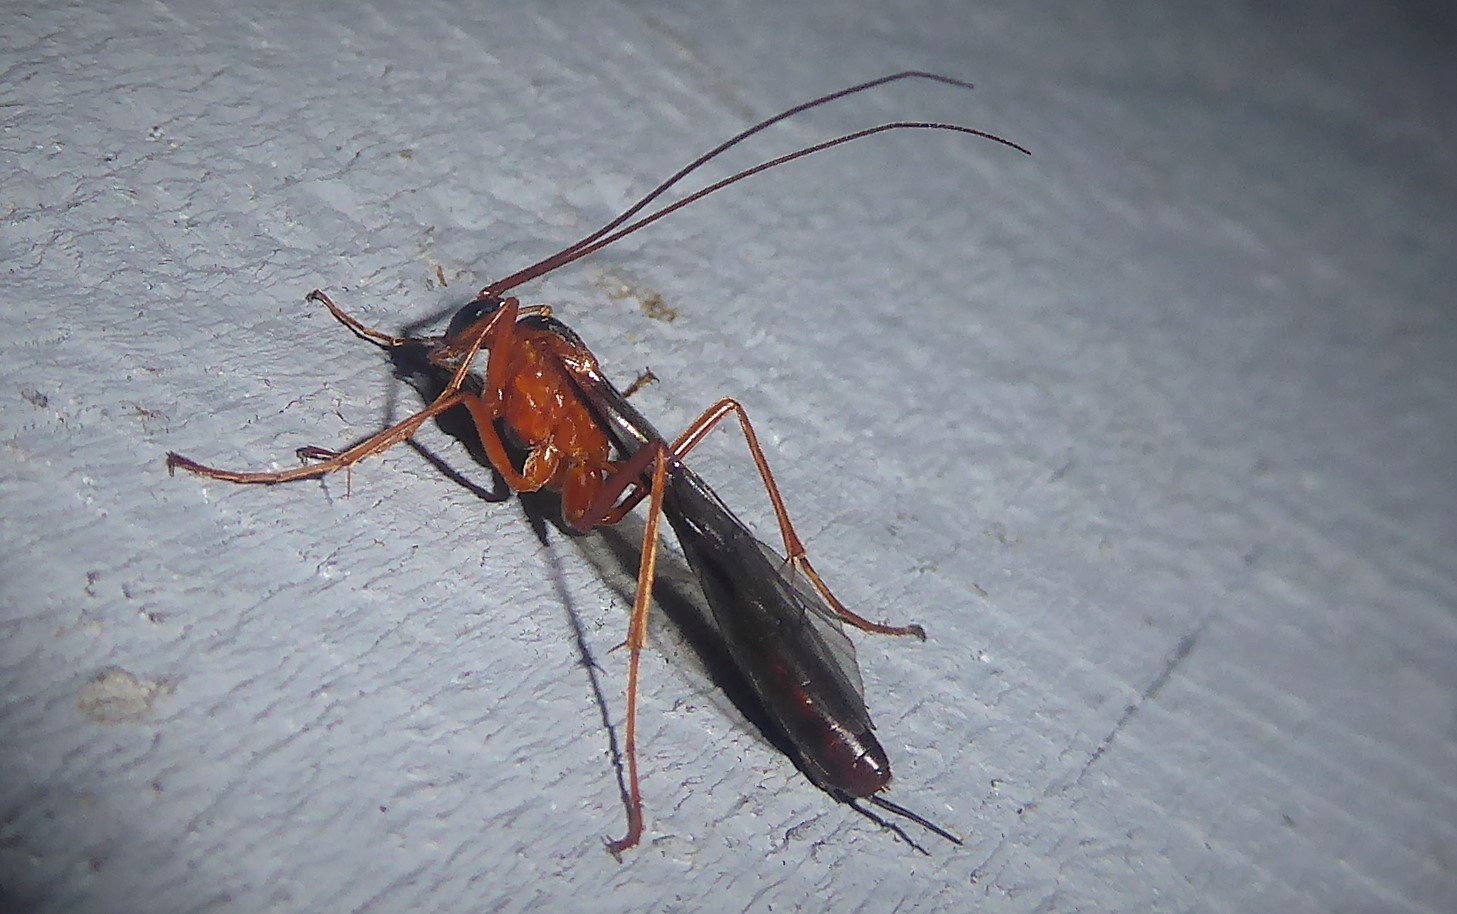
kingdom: Animalia
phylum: Arthropoda
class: Insecta
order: Hymenoptera
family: Ichneumonidae
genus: Netelia
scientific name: Netelia ephippiata
